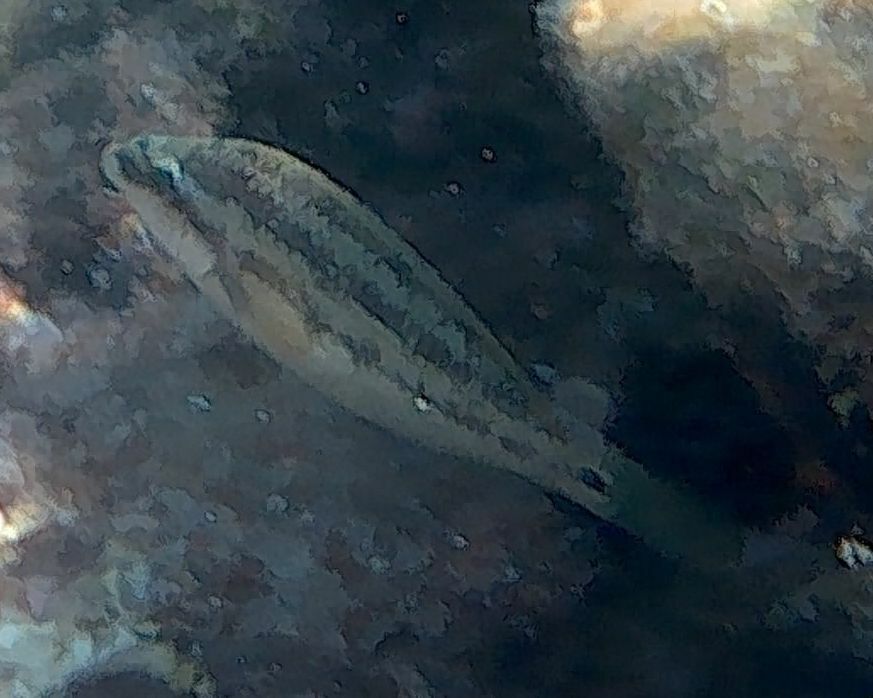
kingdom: Animalia
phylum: Chordata
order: Perciformes
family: Labridae
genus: Symphodus
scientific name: Symphodus tinca
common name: Peacock wrasse
